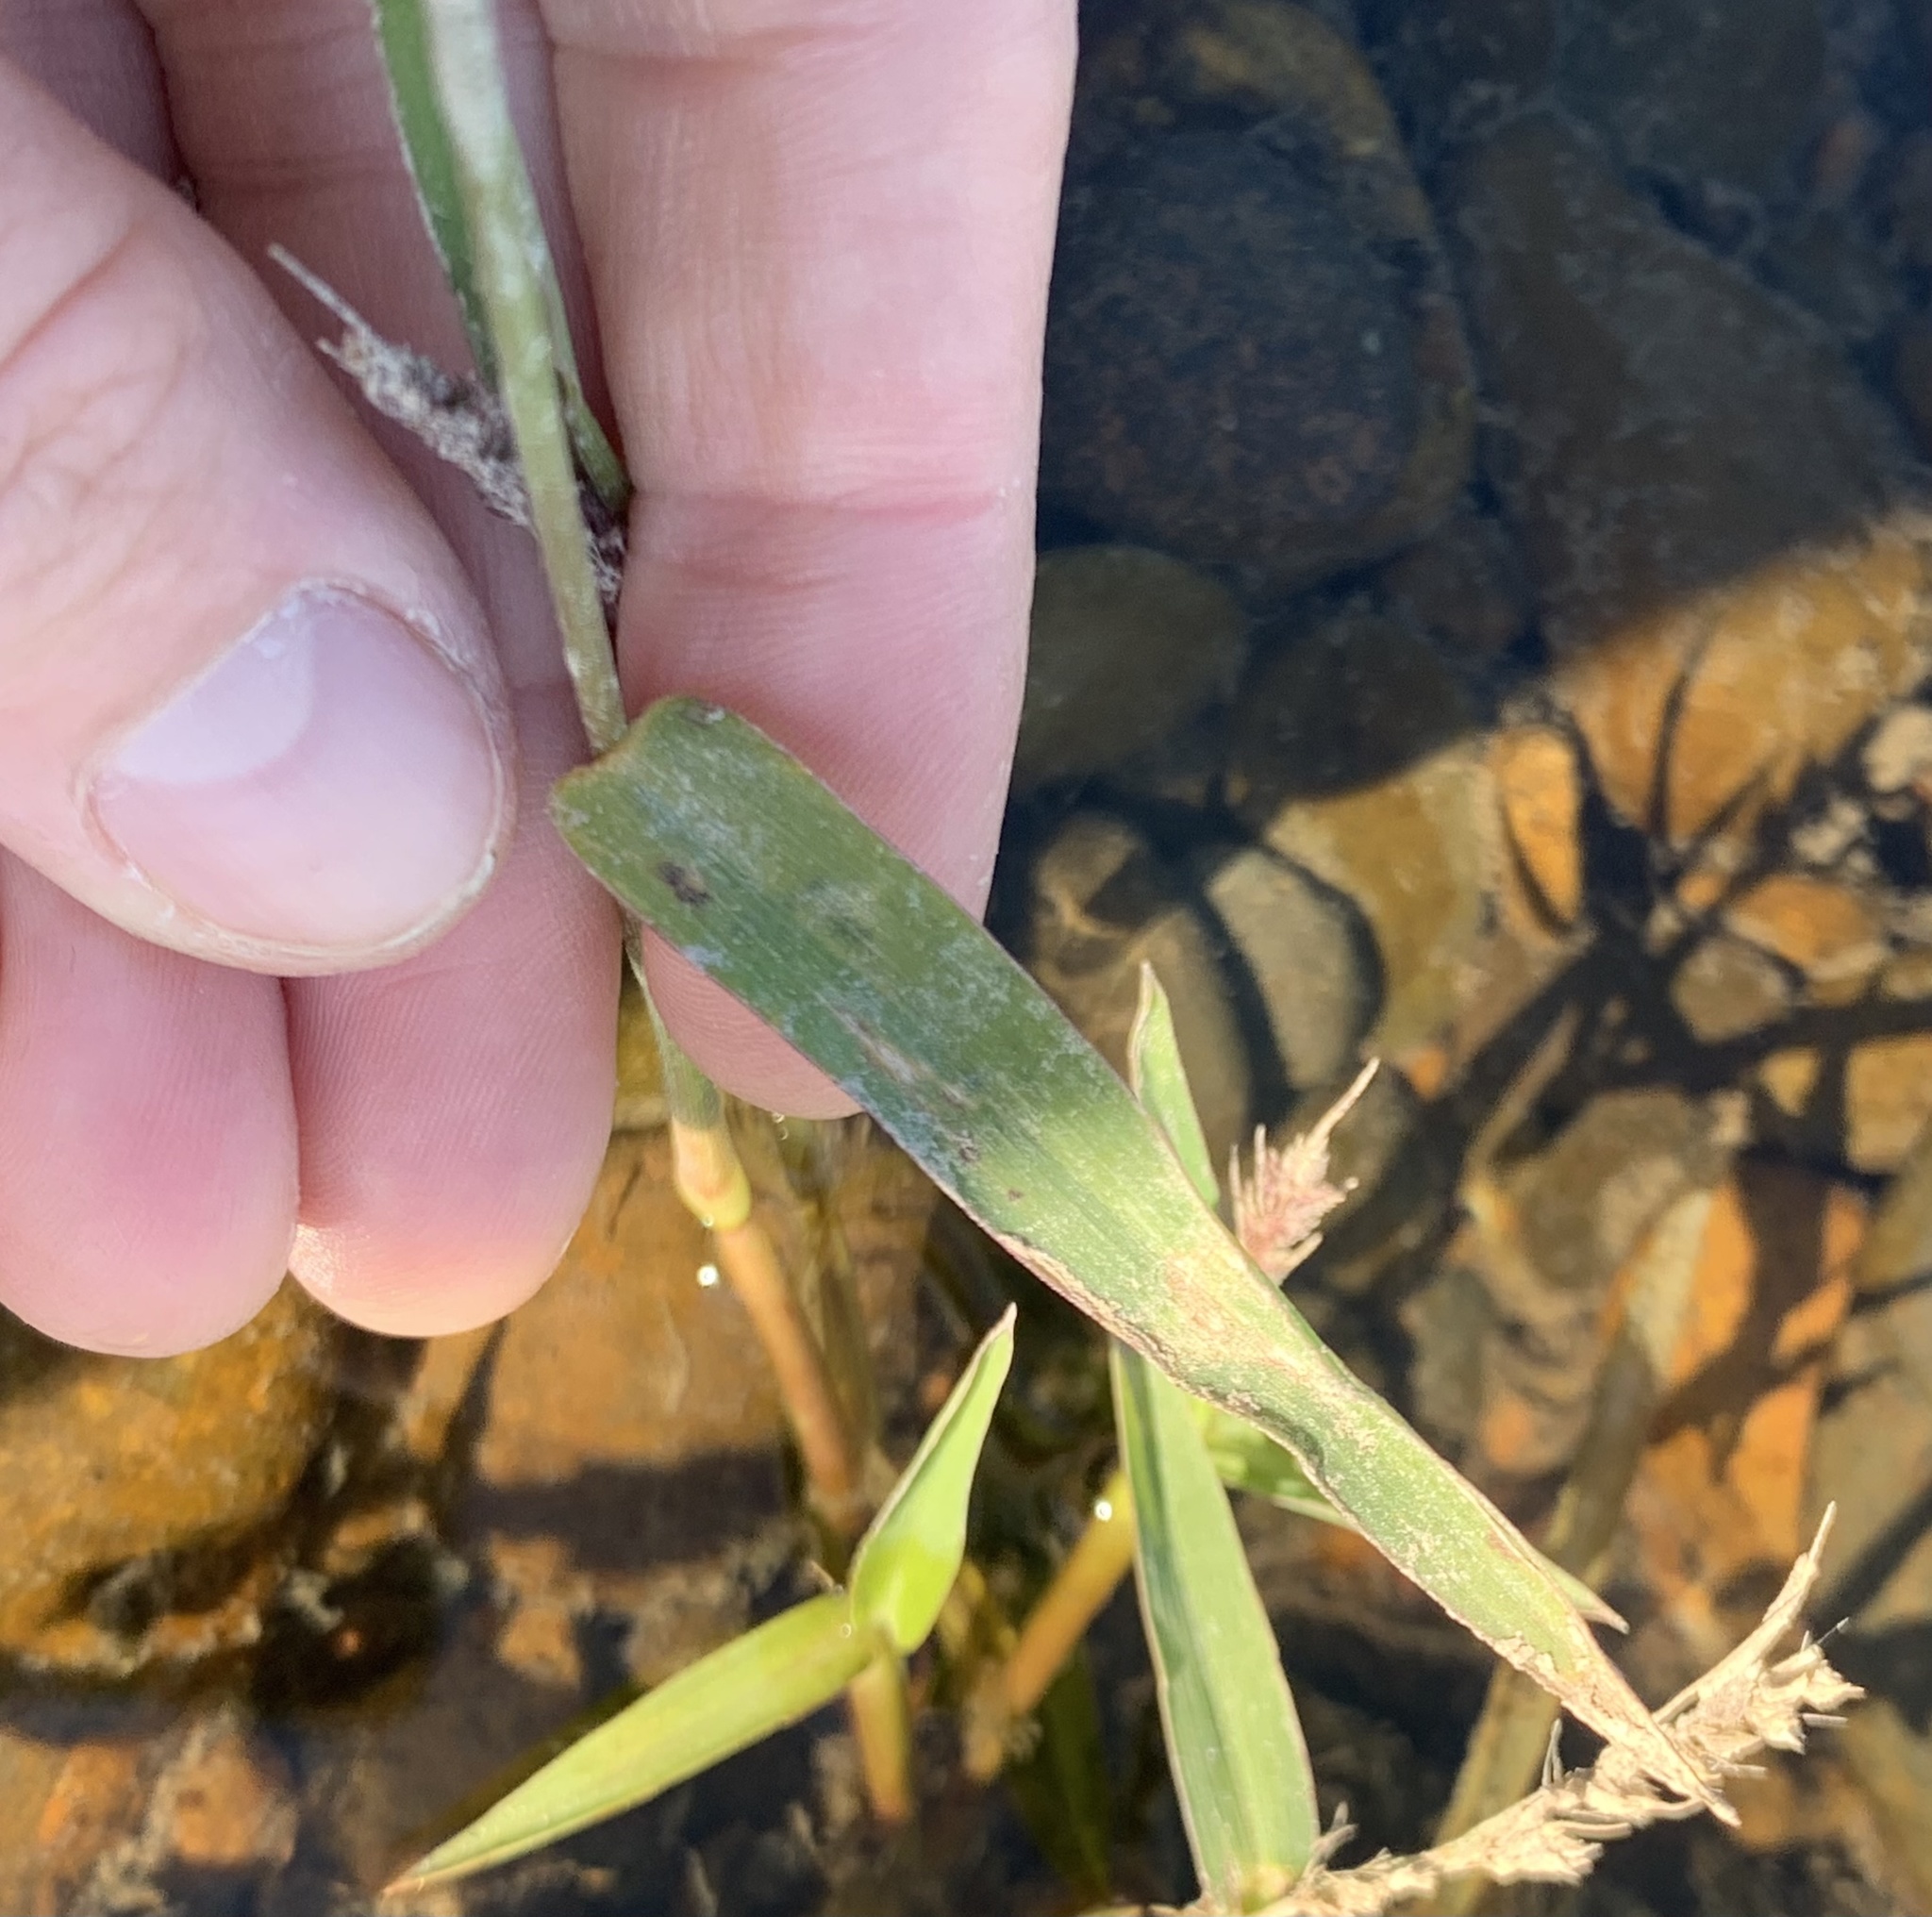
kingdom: Plantae
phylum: Tracheophyta
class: Liliopsida
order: Poales
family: Poaceae
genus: Echinochloa
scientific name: Echinochloa crus-galli
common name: Cockspur
